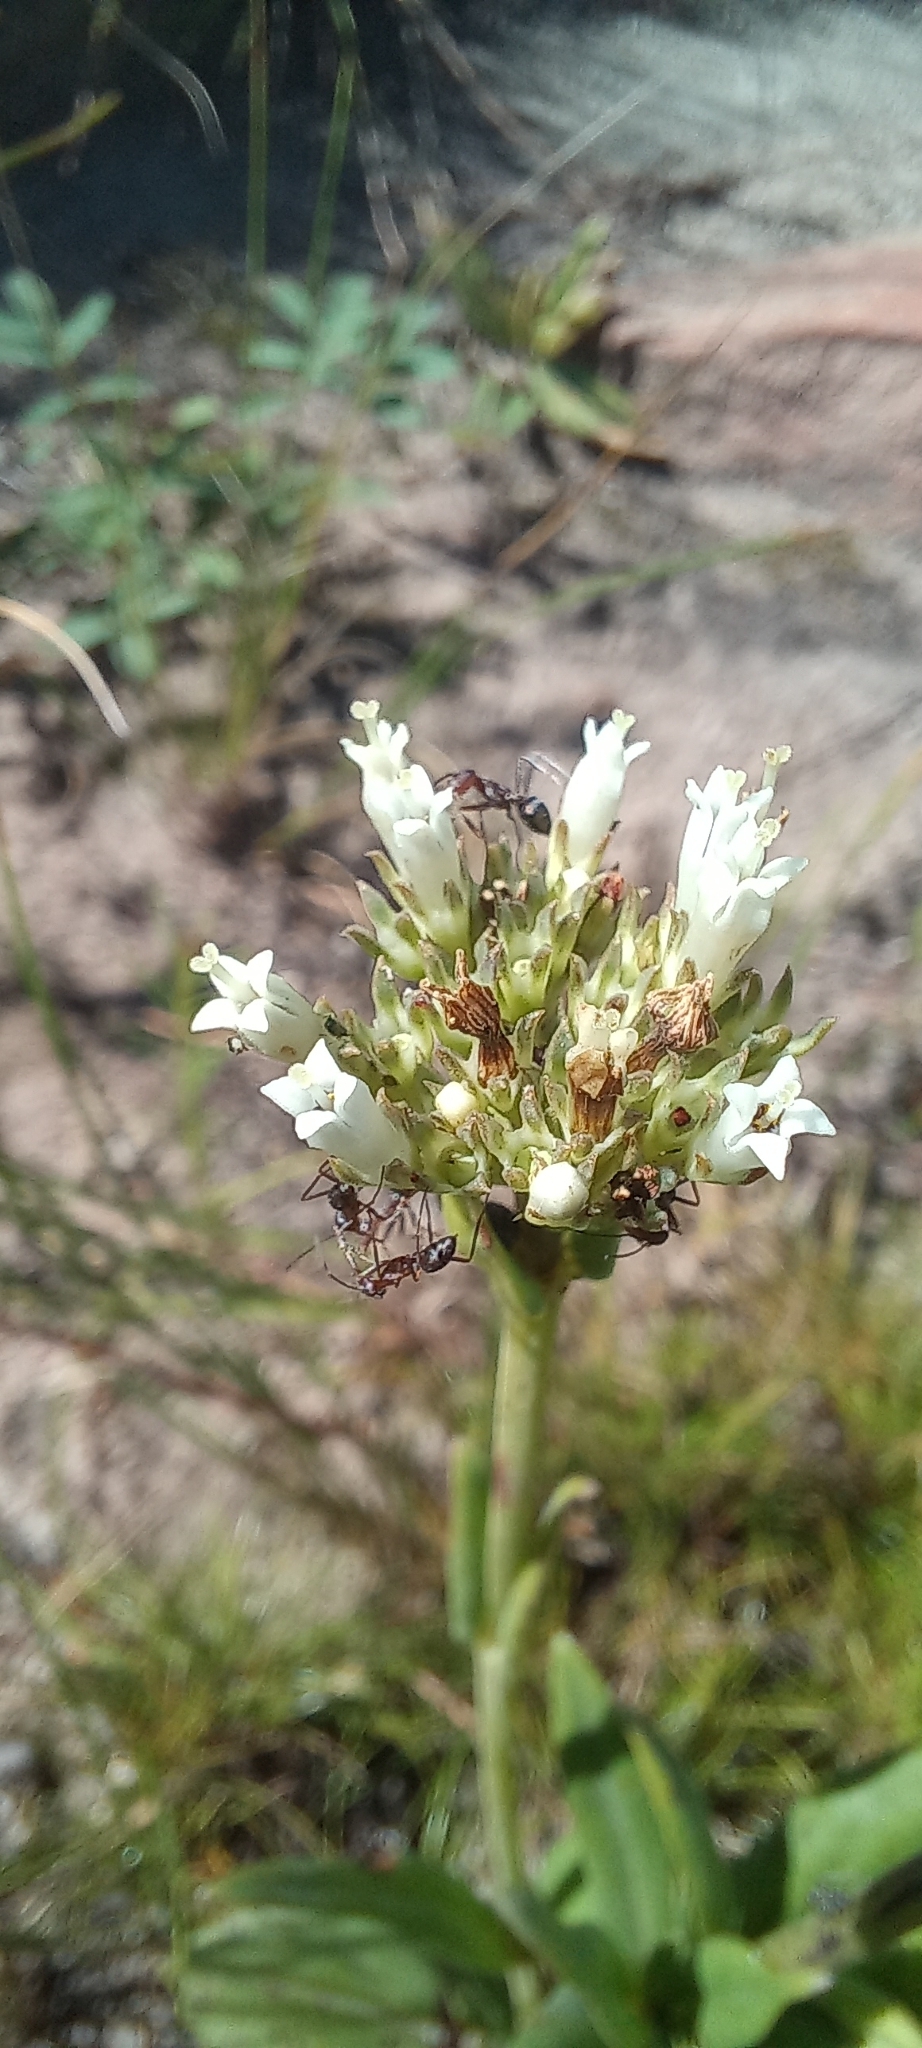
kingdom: Plantae
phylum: Tracheophyta
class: Magnoliopsida
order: Gentianales
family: Rubiaceae
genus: Agathisanthemum
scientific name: Agathisanthemum chlorophyllum
